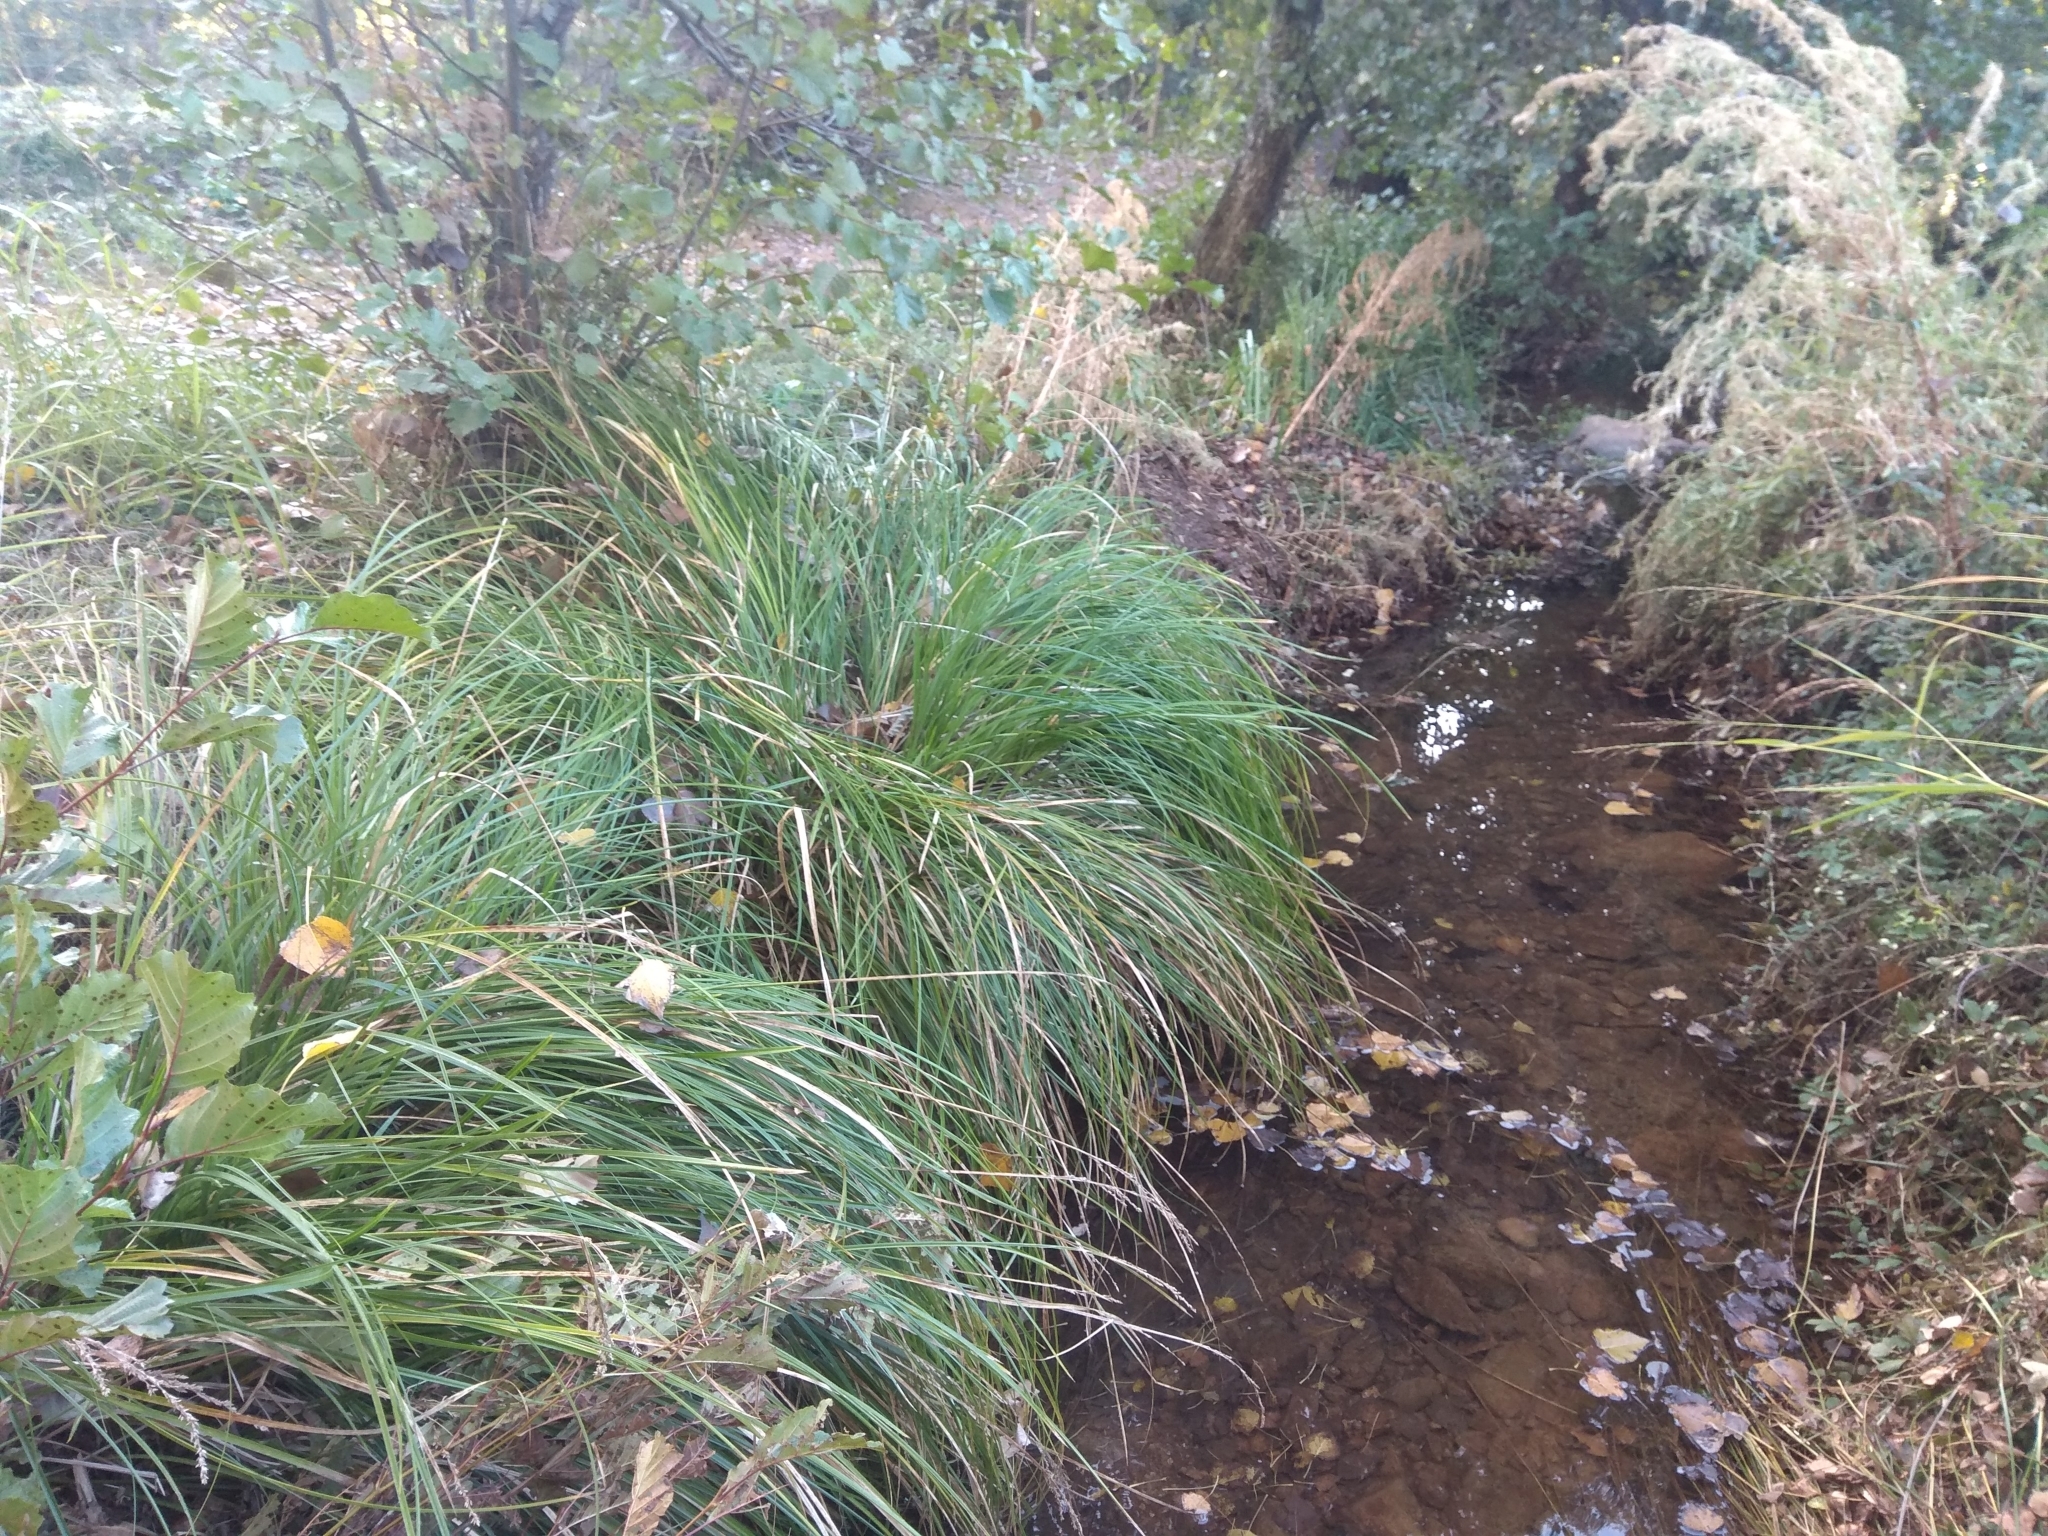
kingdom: Plantae
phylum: Tracheophyta
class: Liliopsida
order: Poales
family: Cyperaceae
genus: Carex
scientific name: Carex paniculata
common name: Greater tussock-sedge
